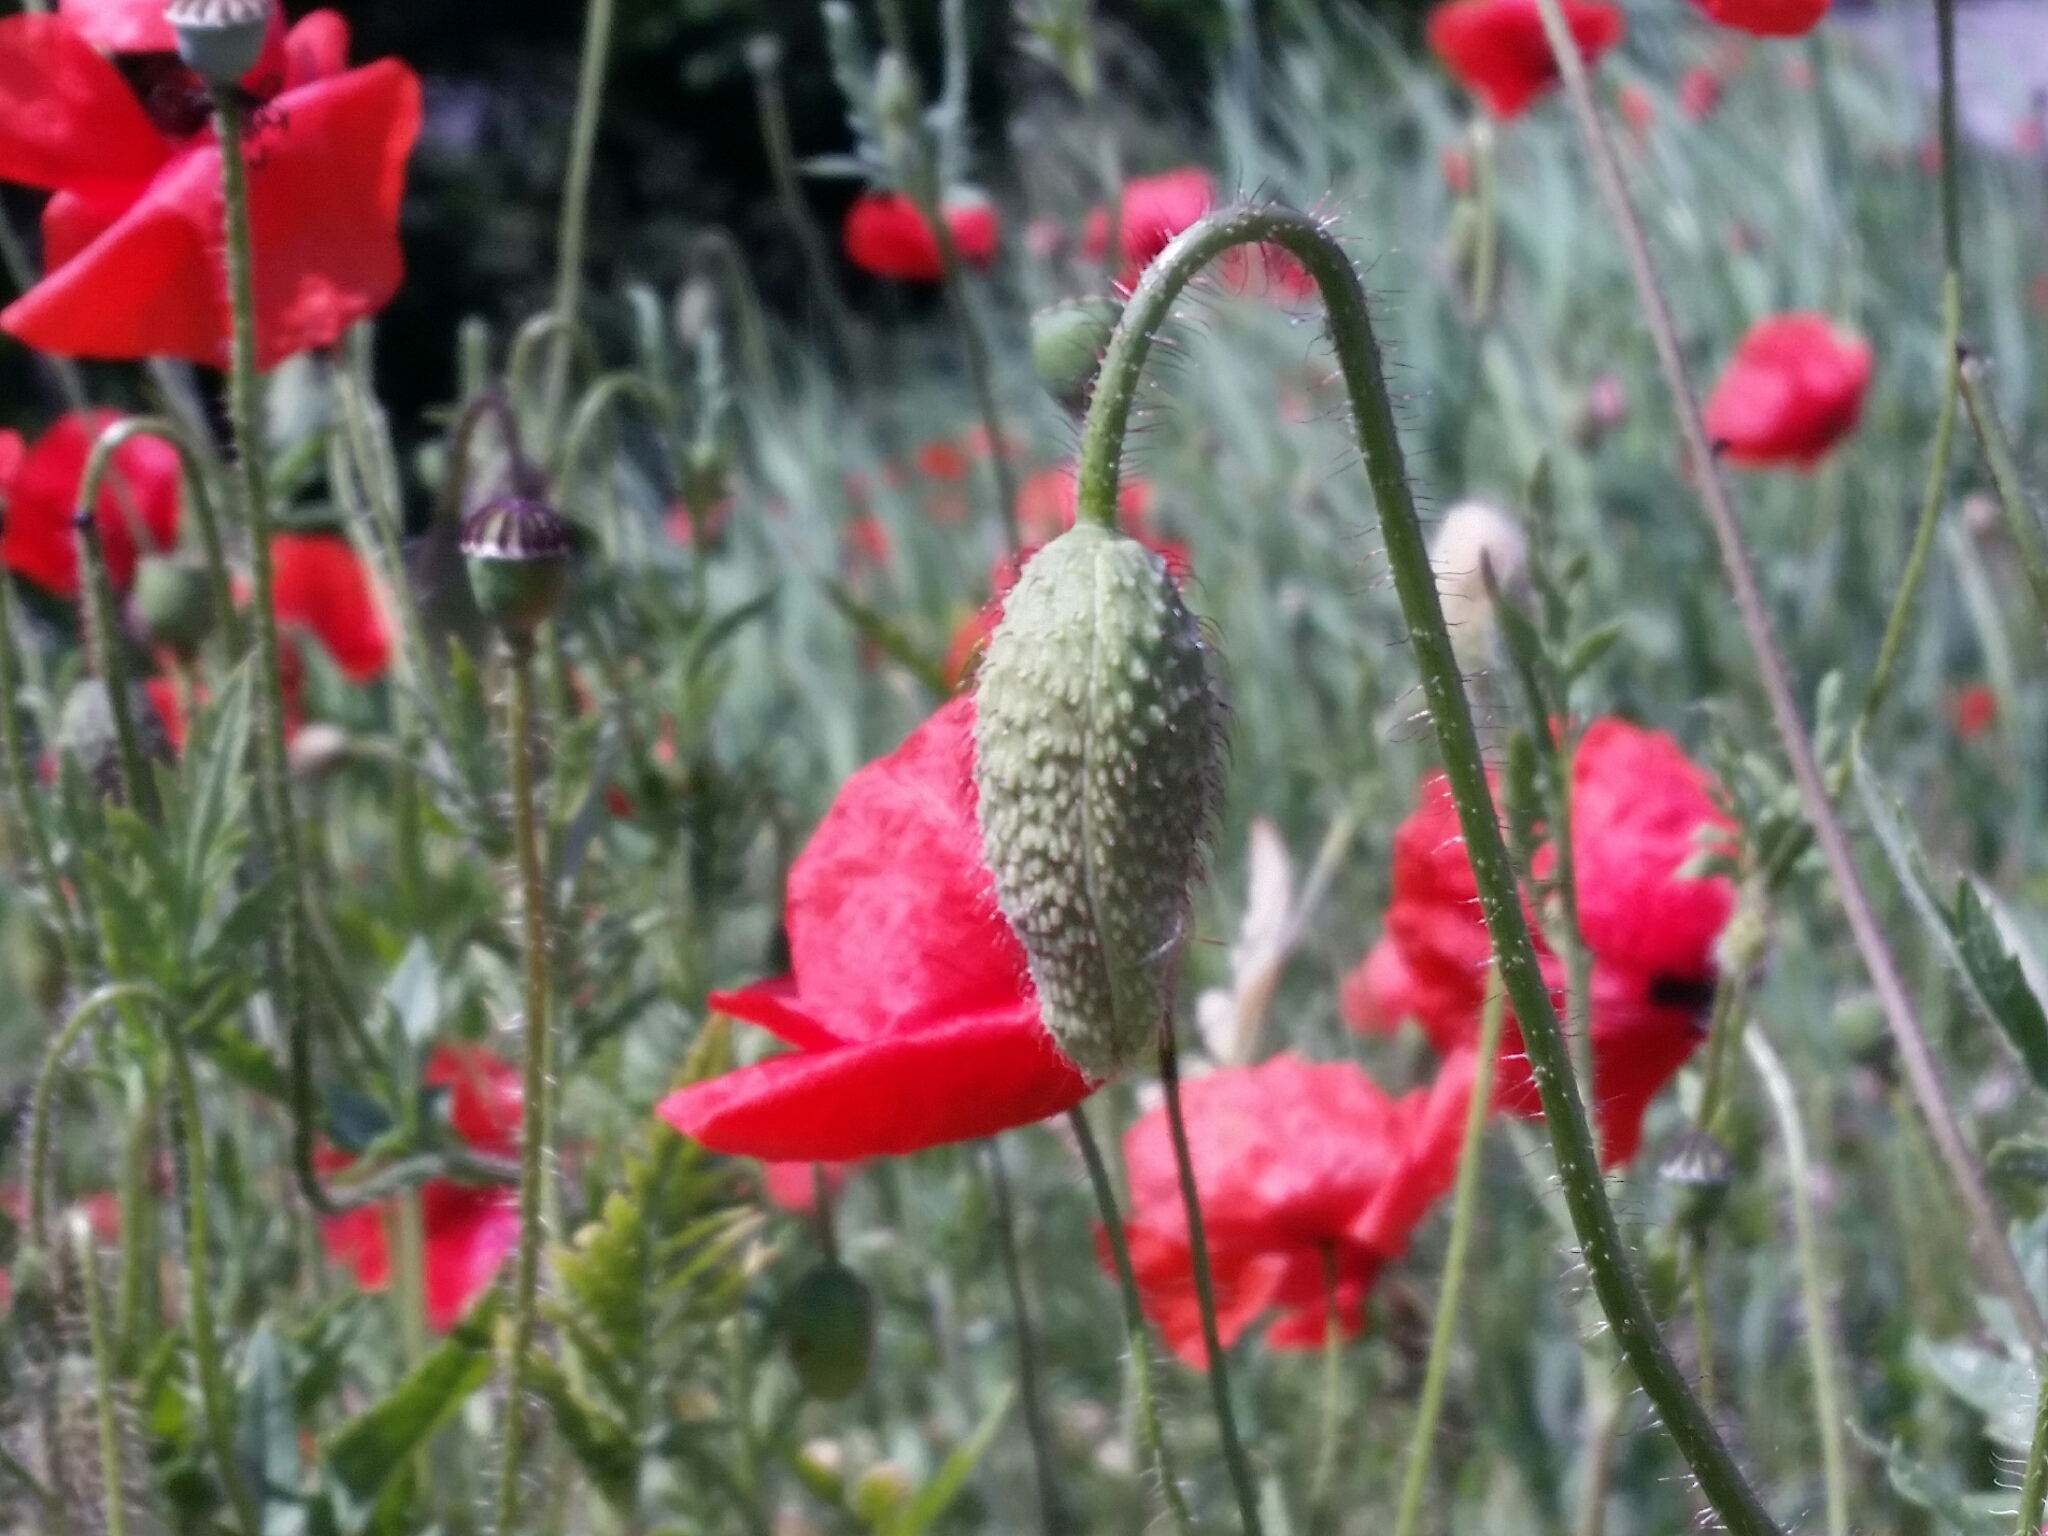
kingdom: Plantae
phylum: Tracheophyta
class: Magnoliopsida
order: Ranunculales
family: Papaveraceae
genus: Papaver
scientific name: Papaver rhoeas
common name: Corn poppy
